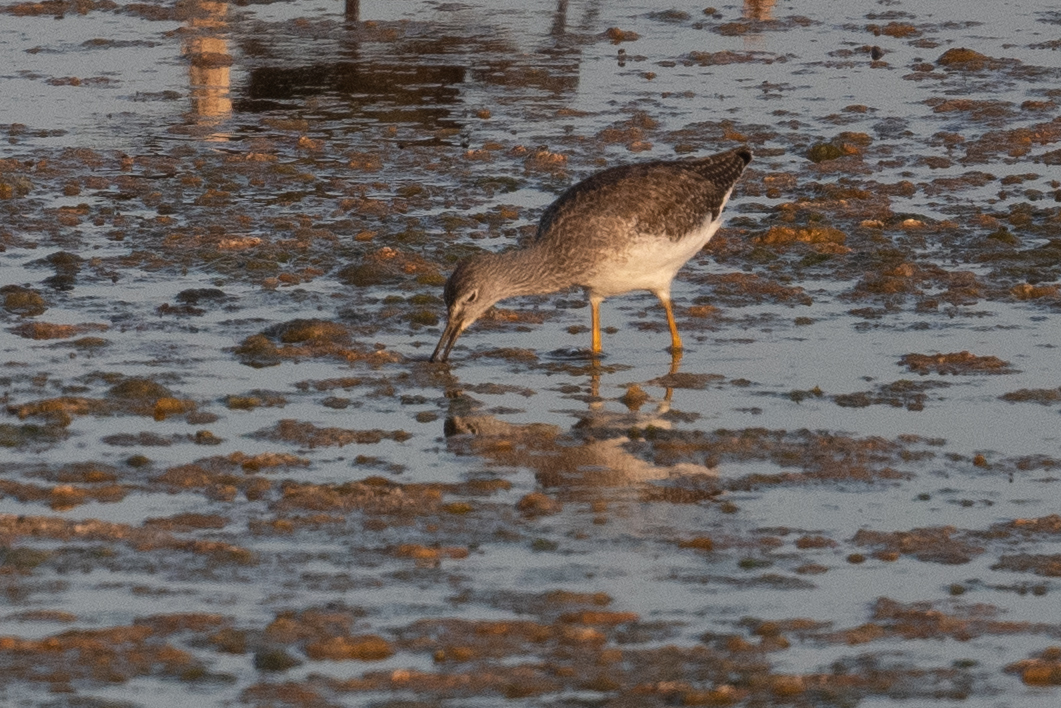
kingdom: Animalia
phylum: Chordata
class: Aves
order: Charadriiformes
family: Scolopacidae
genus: Tringa
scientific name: Tringa melanoleuca
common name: Greater yellowlegs
